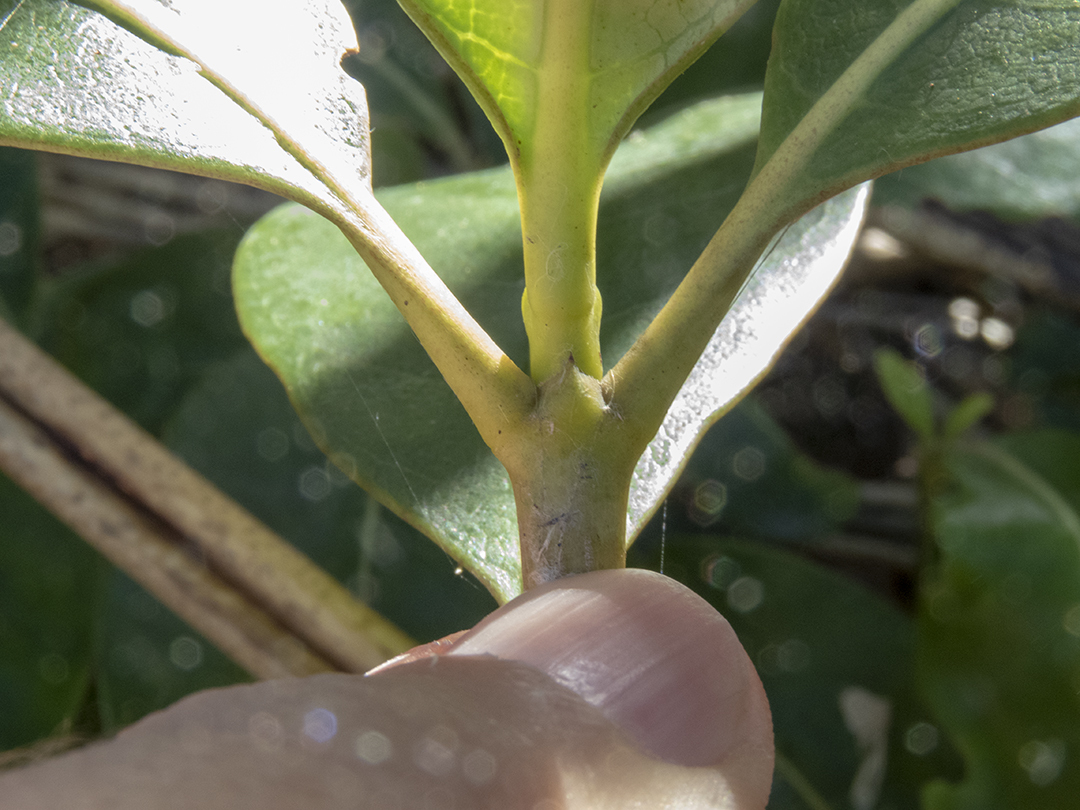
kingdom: Plantae
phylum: Tracheophyta
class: Magnoliopsida
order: Gentianales
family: Rubiaceae
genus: Coprosma
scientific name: Coprosma lucida
